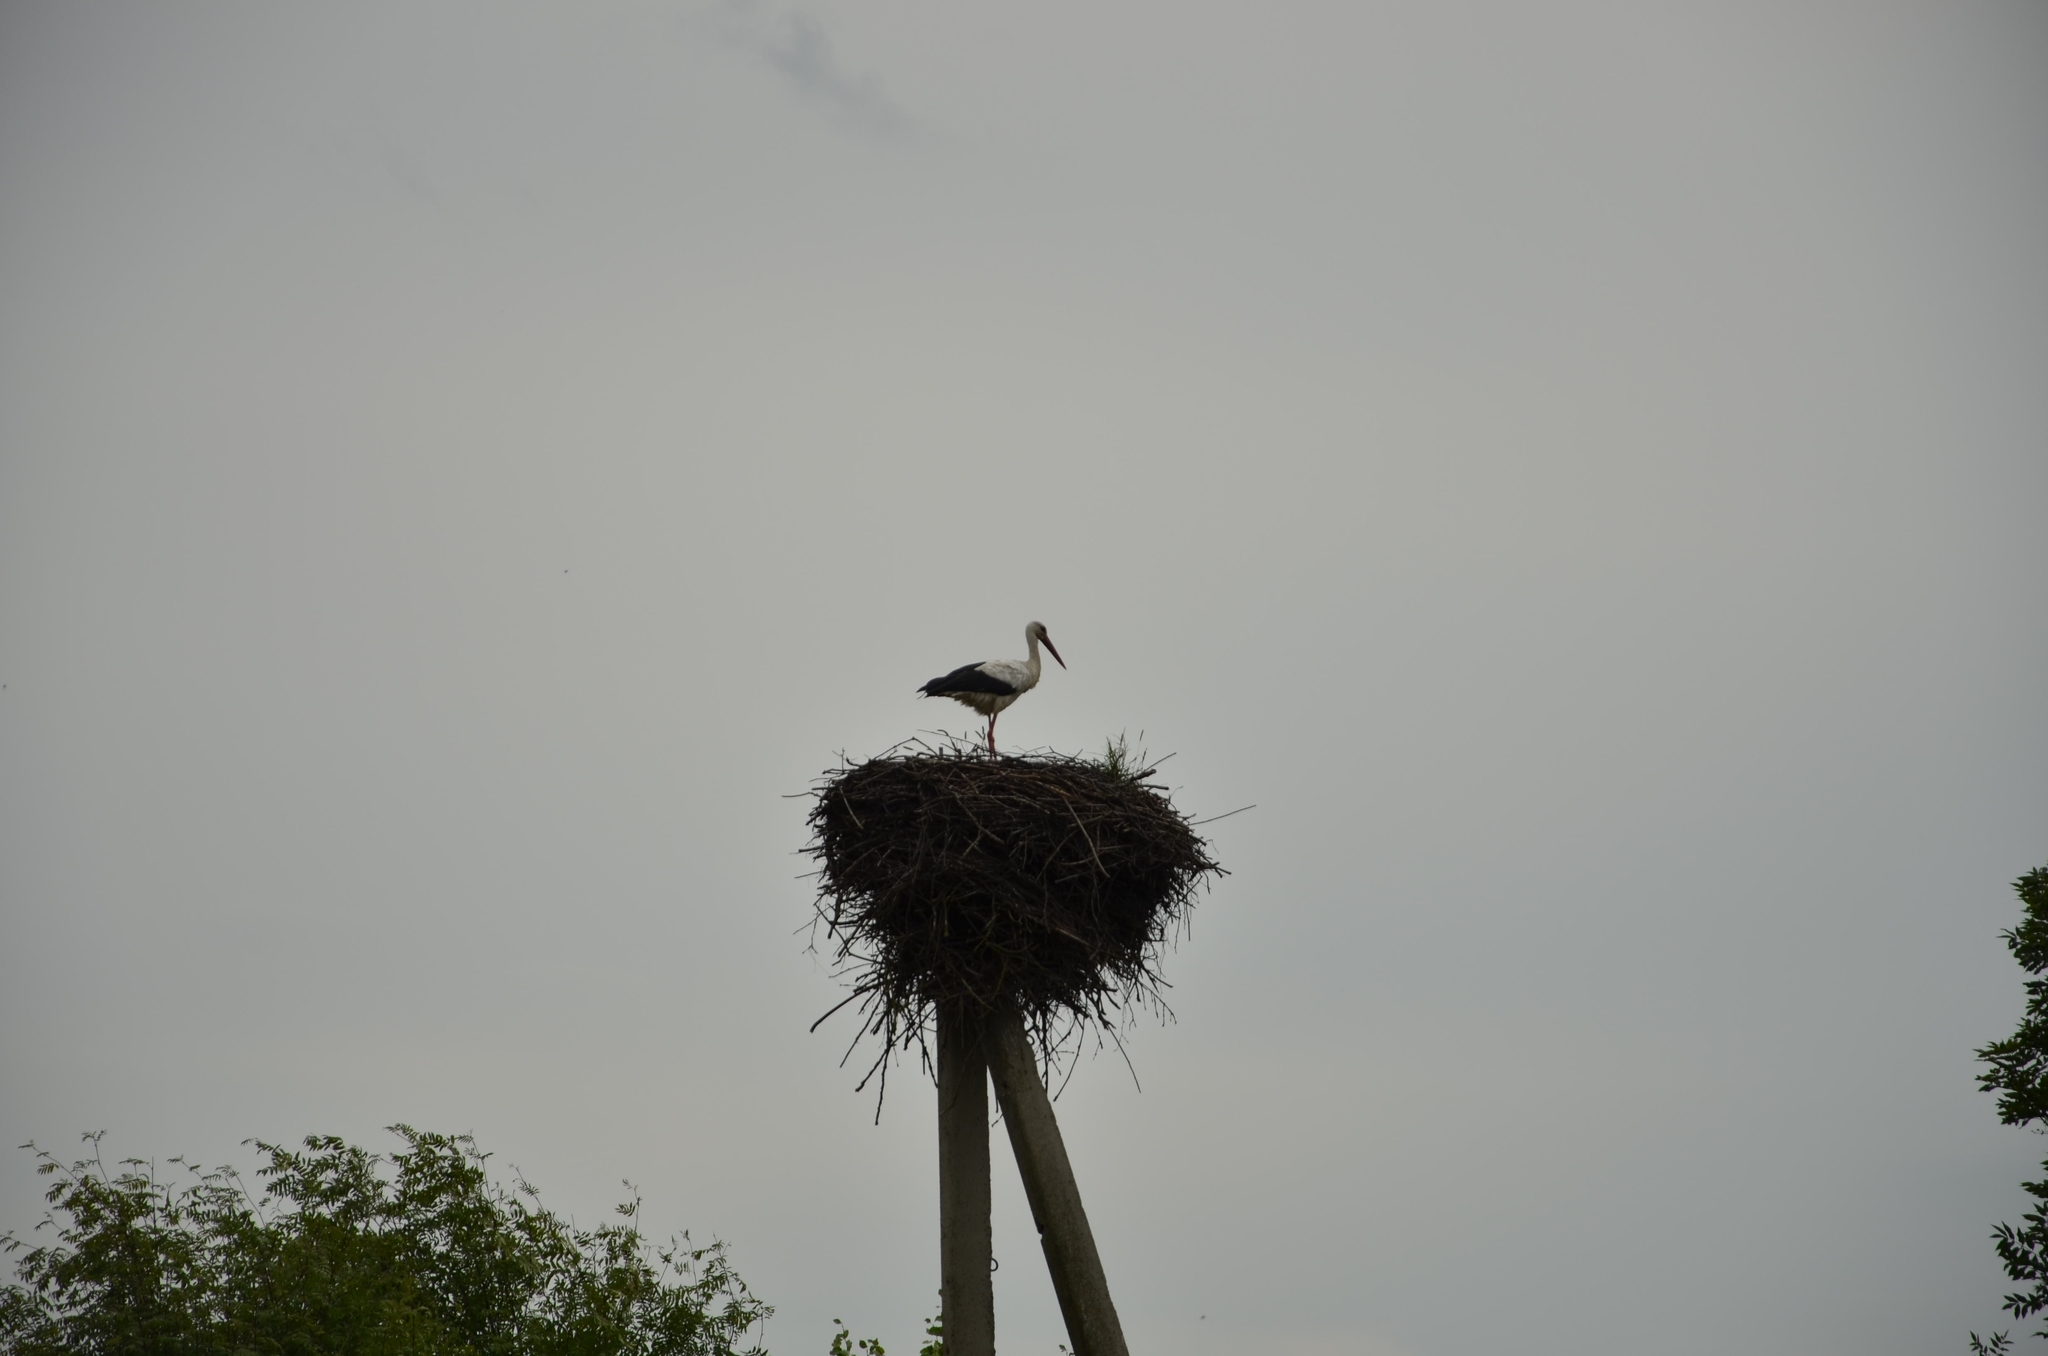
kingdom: Animalia
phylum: Chordata
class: Aves
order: Ciconiiformes
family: Ciconiidae
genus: Ciconia
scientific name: Ciconia ciconia
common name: White stork
